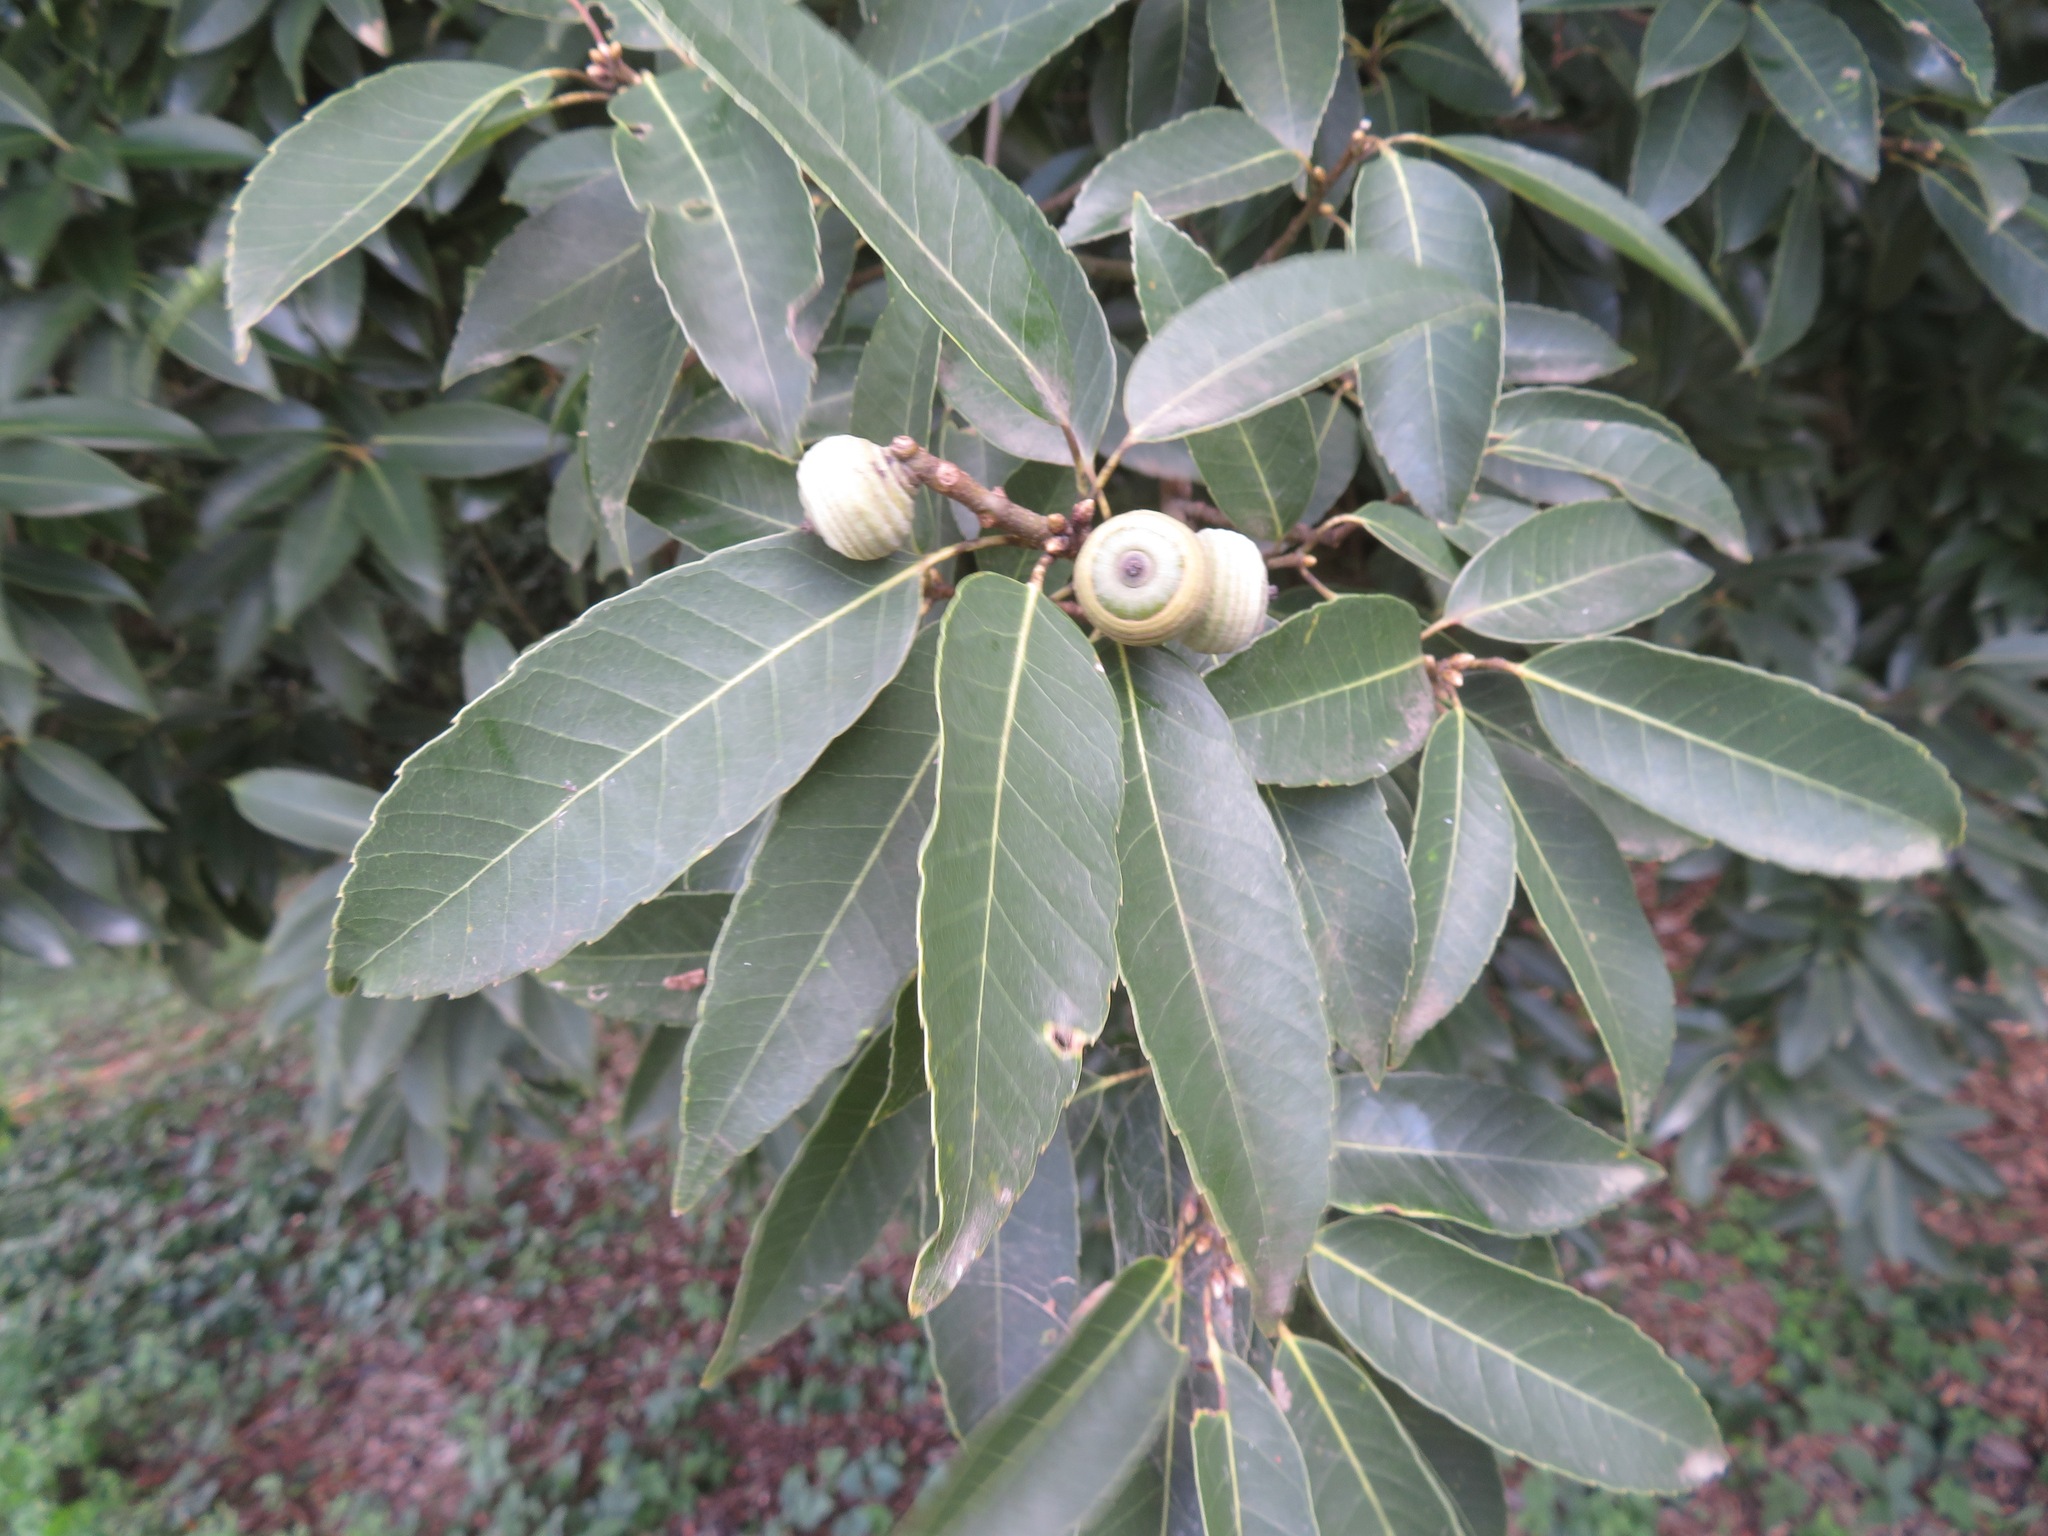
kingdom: Plantae
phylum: Tracheophyta
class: Magnoliopsida
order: Fagales
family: Fagaceae
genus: Quercus
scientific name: Quercus myrsinifolia
